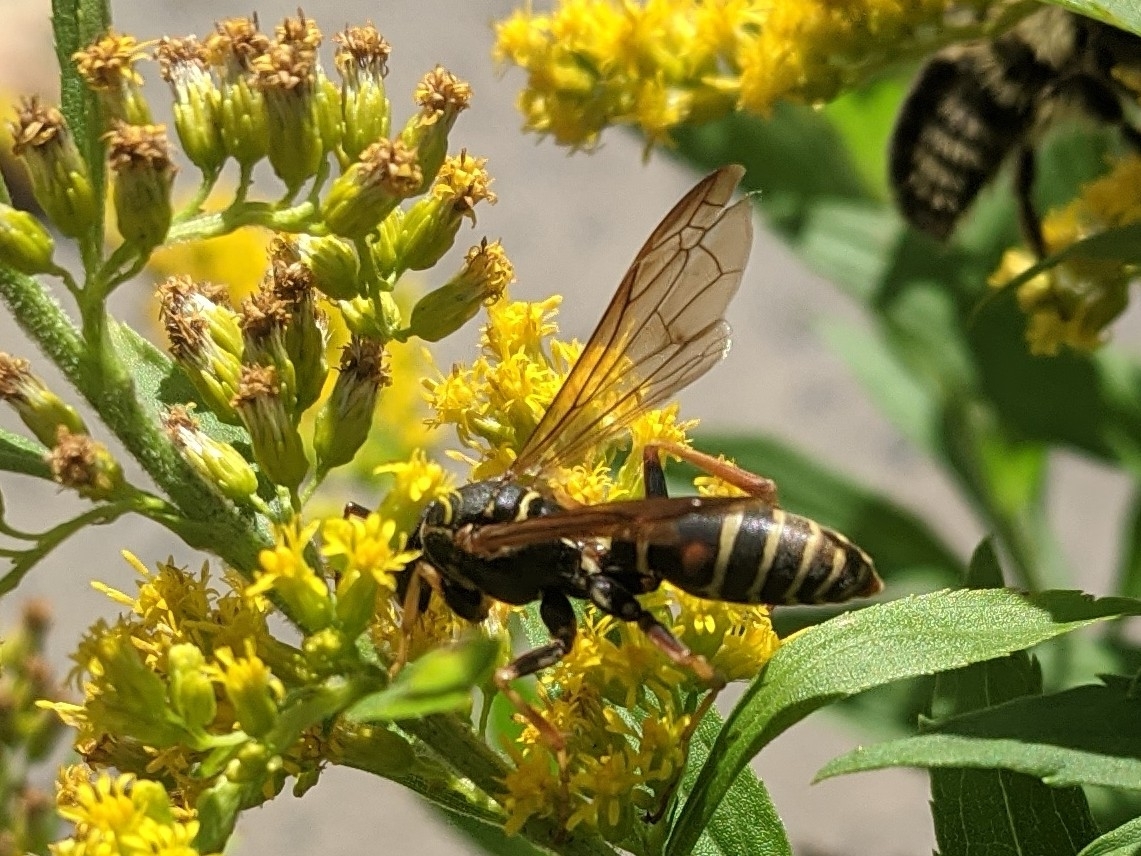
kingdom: Animalia
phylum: Arthropoda
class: Insecta
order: Hymenoptera
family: Eumenidae
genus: Polistes
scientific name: Polistes fuscatus
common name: Dark paper wasp
